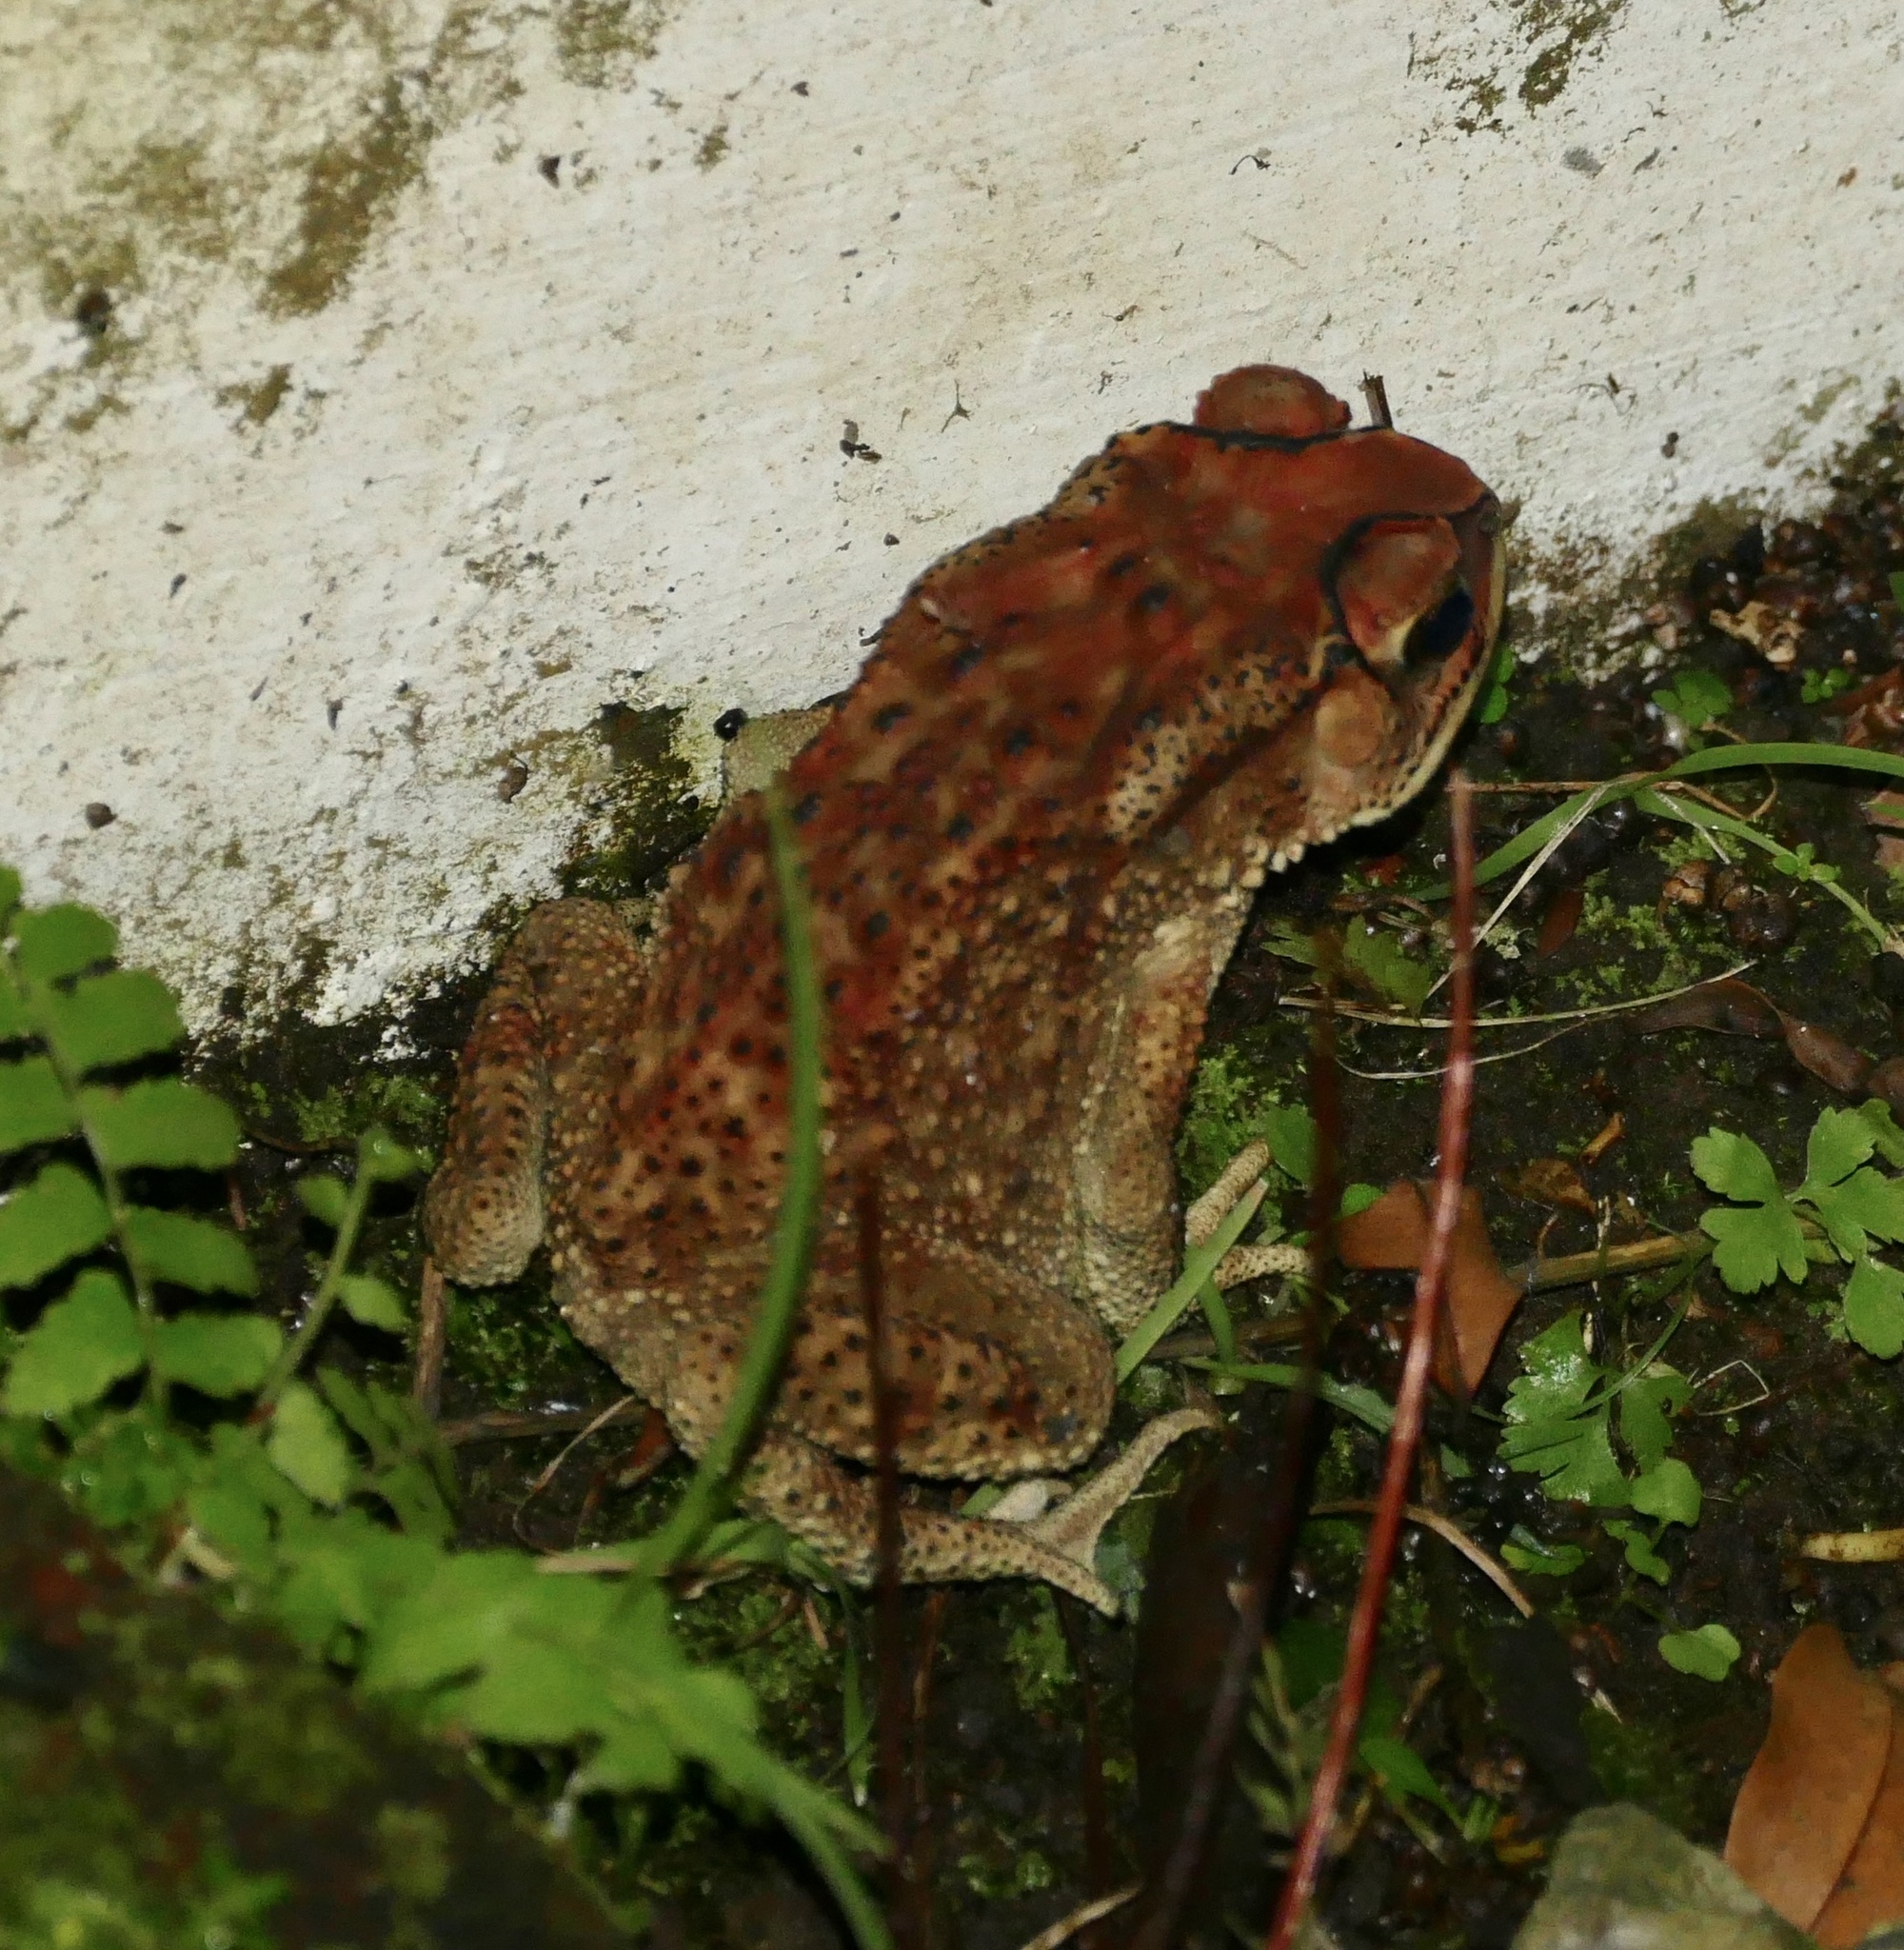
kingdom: Animalia
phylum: Chordata
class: Amphibia
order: Anura
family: Bufonidae
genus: Duttaphrynus
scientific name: Duttaphrynus melanostictus
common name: Common sunda toad
